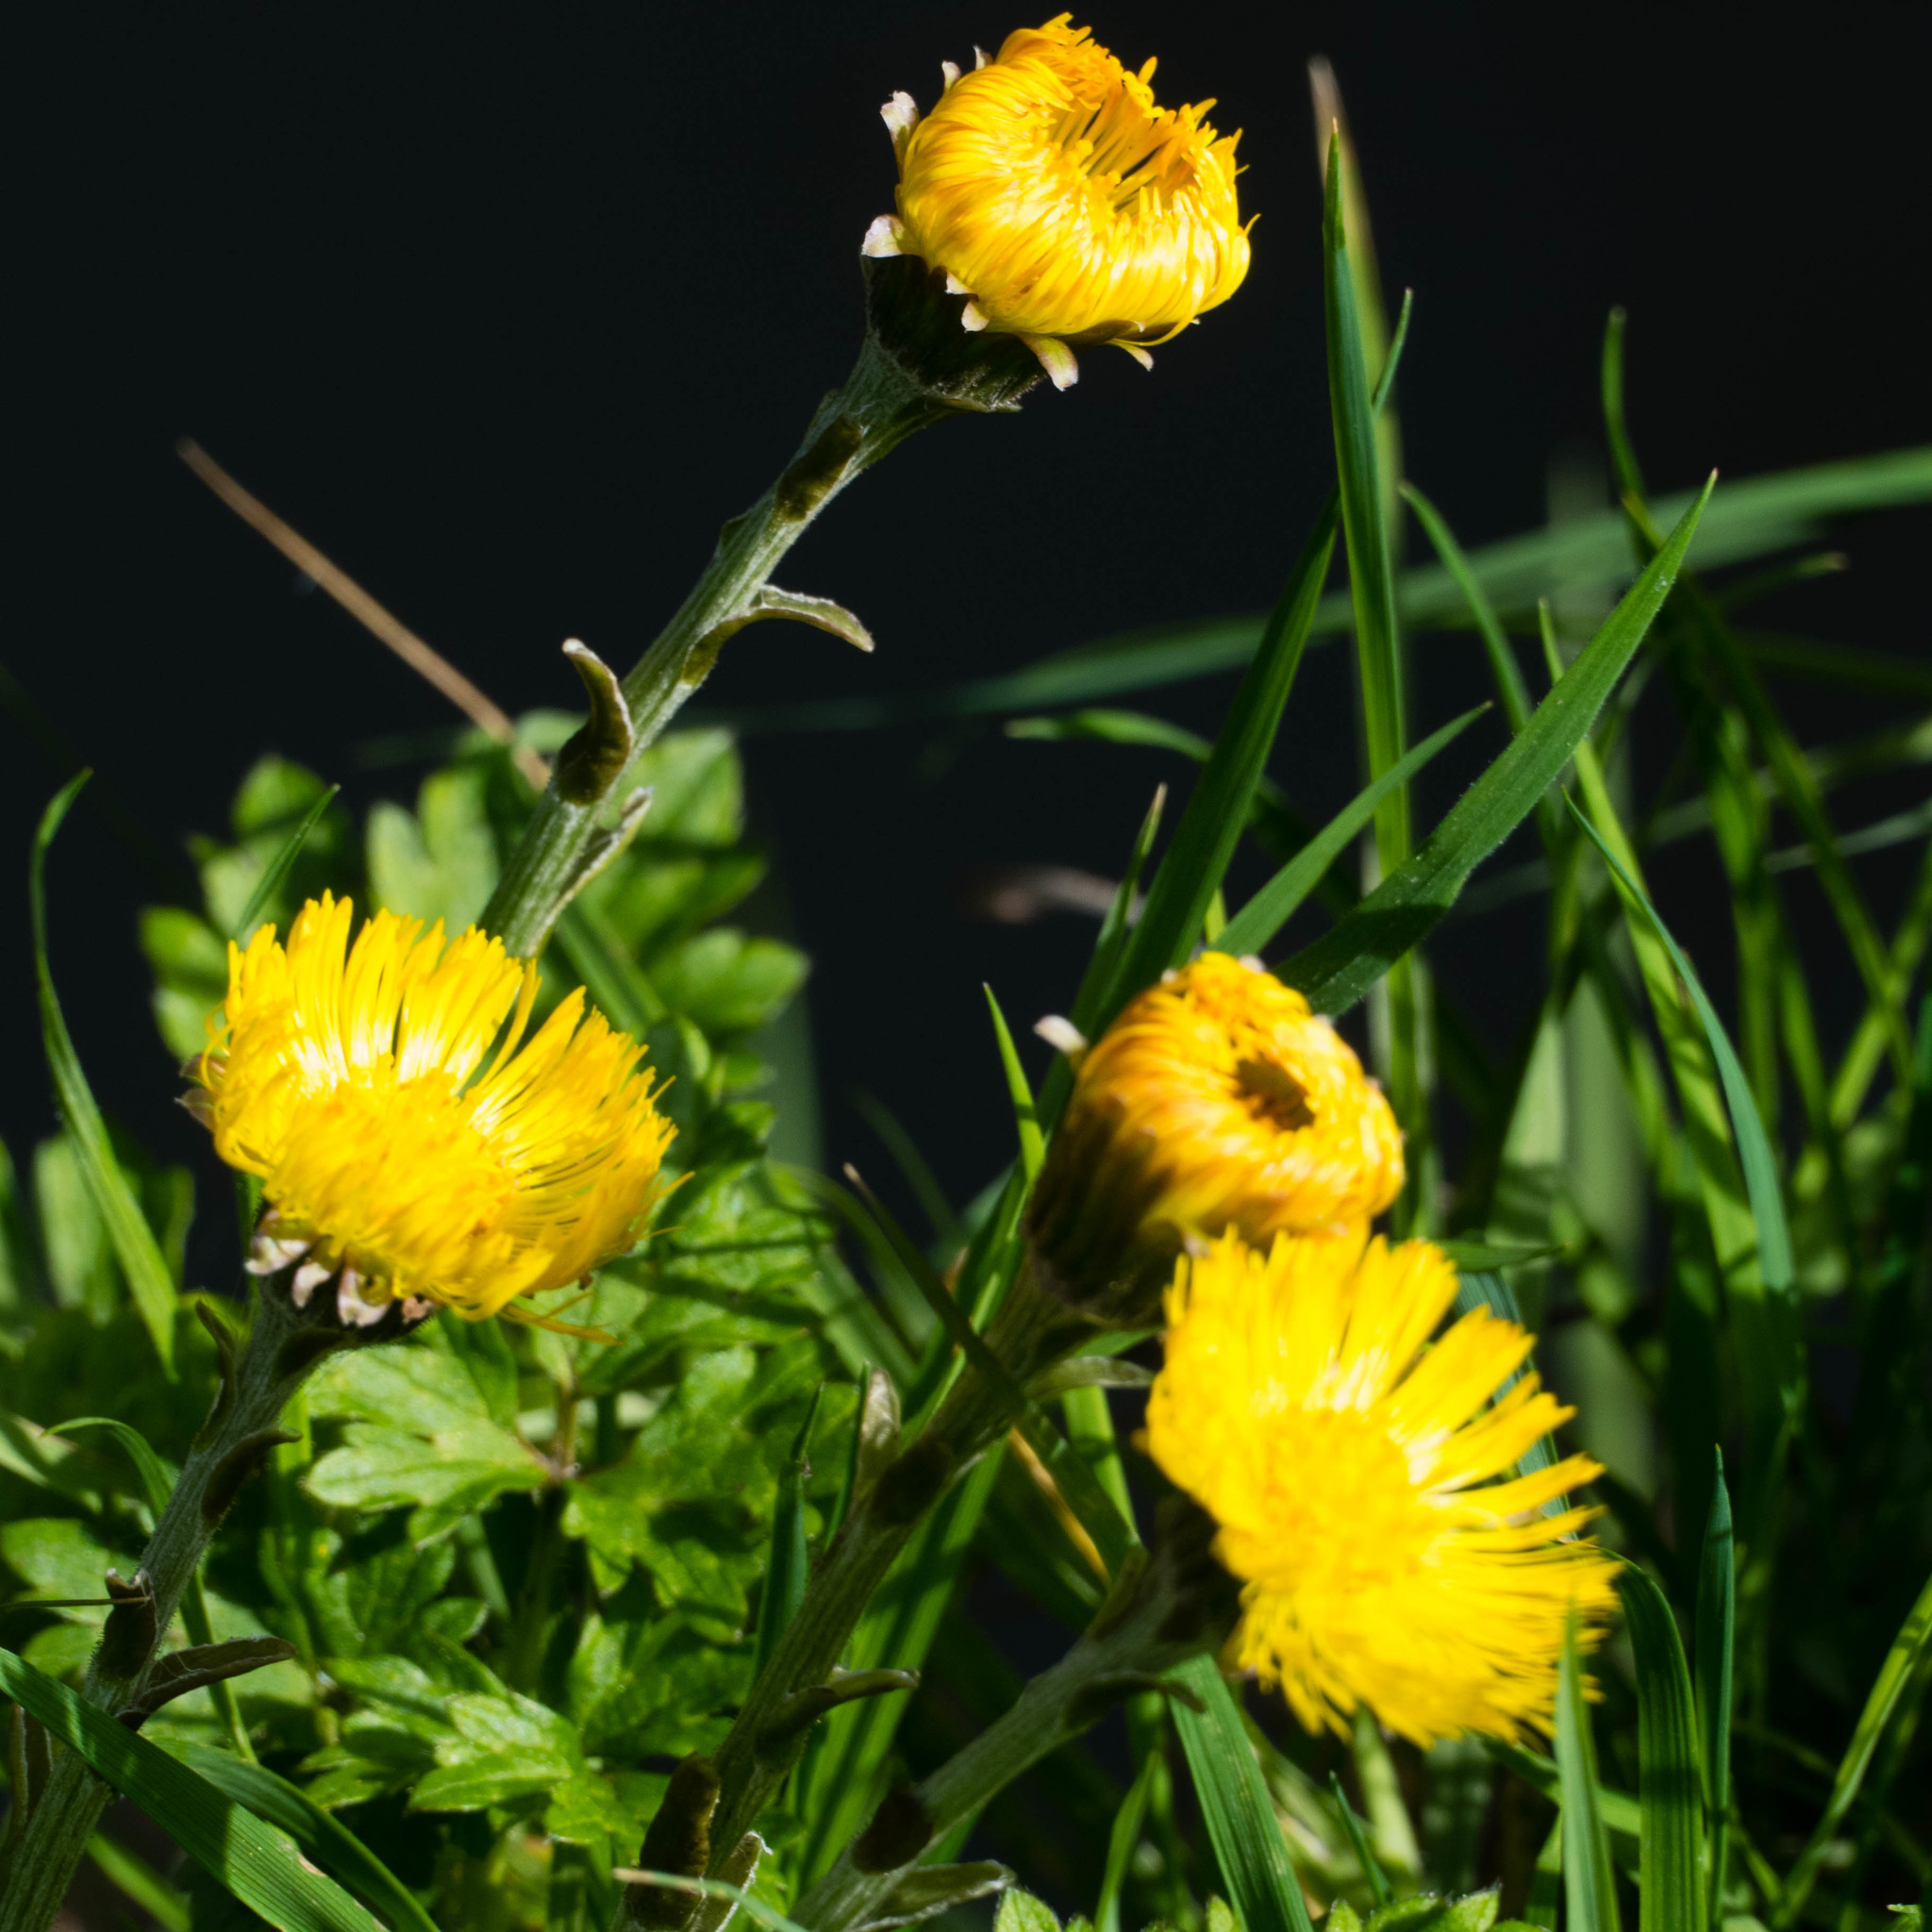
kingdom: Plantae
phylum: Tracheophyta
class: Magnoliopsida
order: Asterales
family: Asteraceae
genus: Tussilago
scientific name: Tussilago farfara
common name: Coltsfoot
